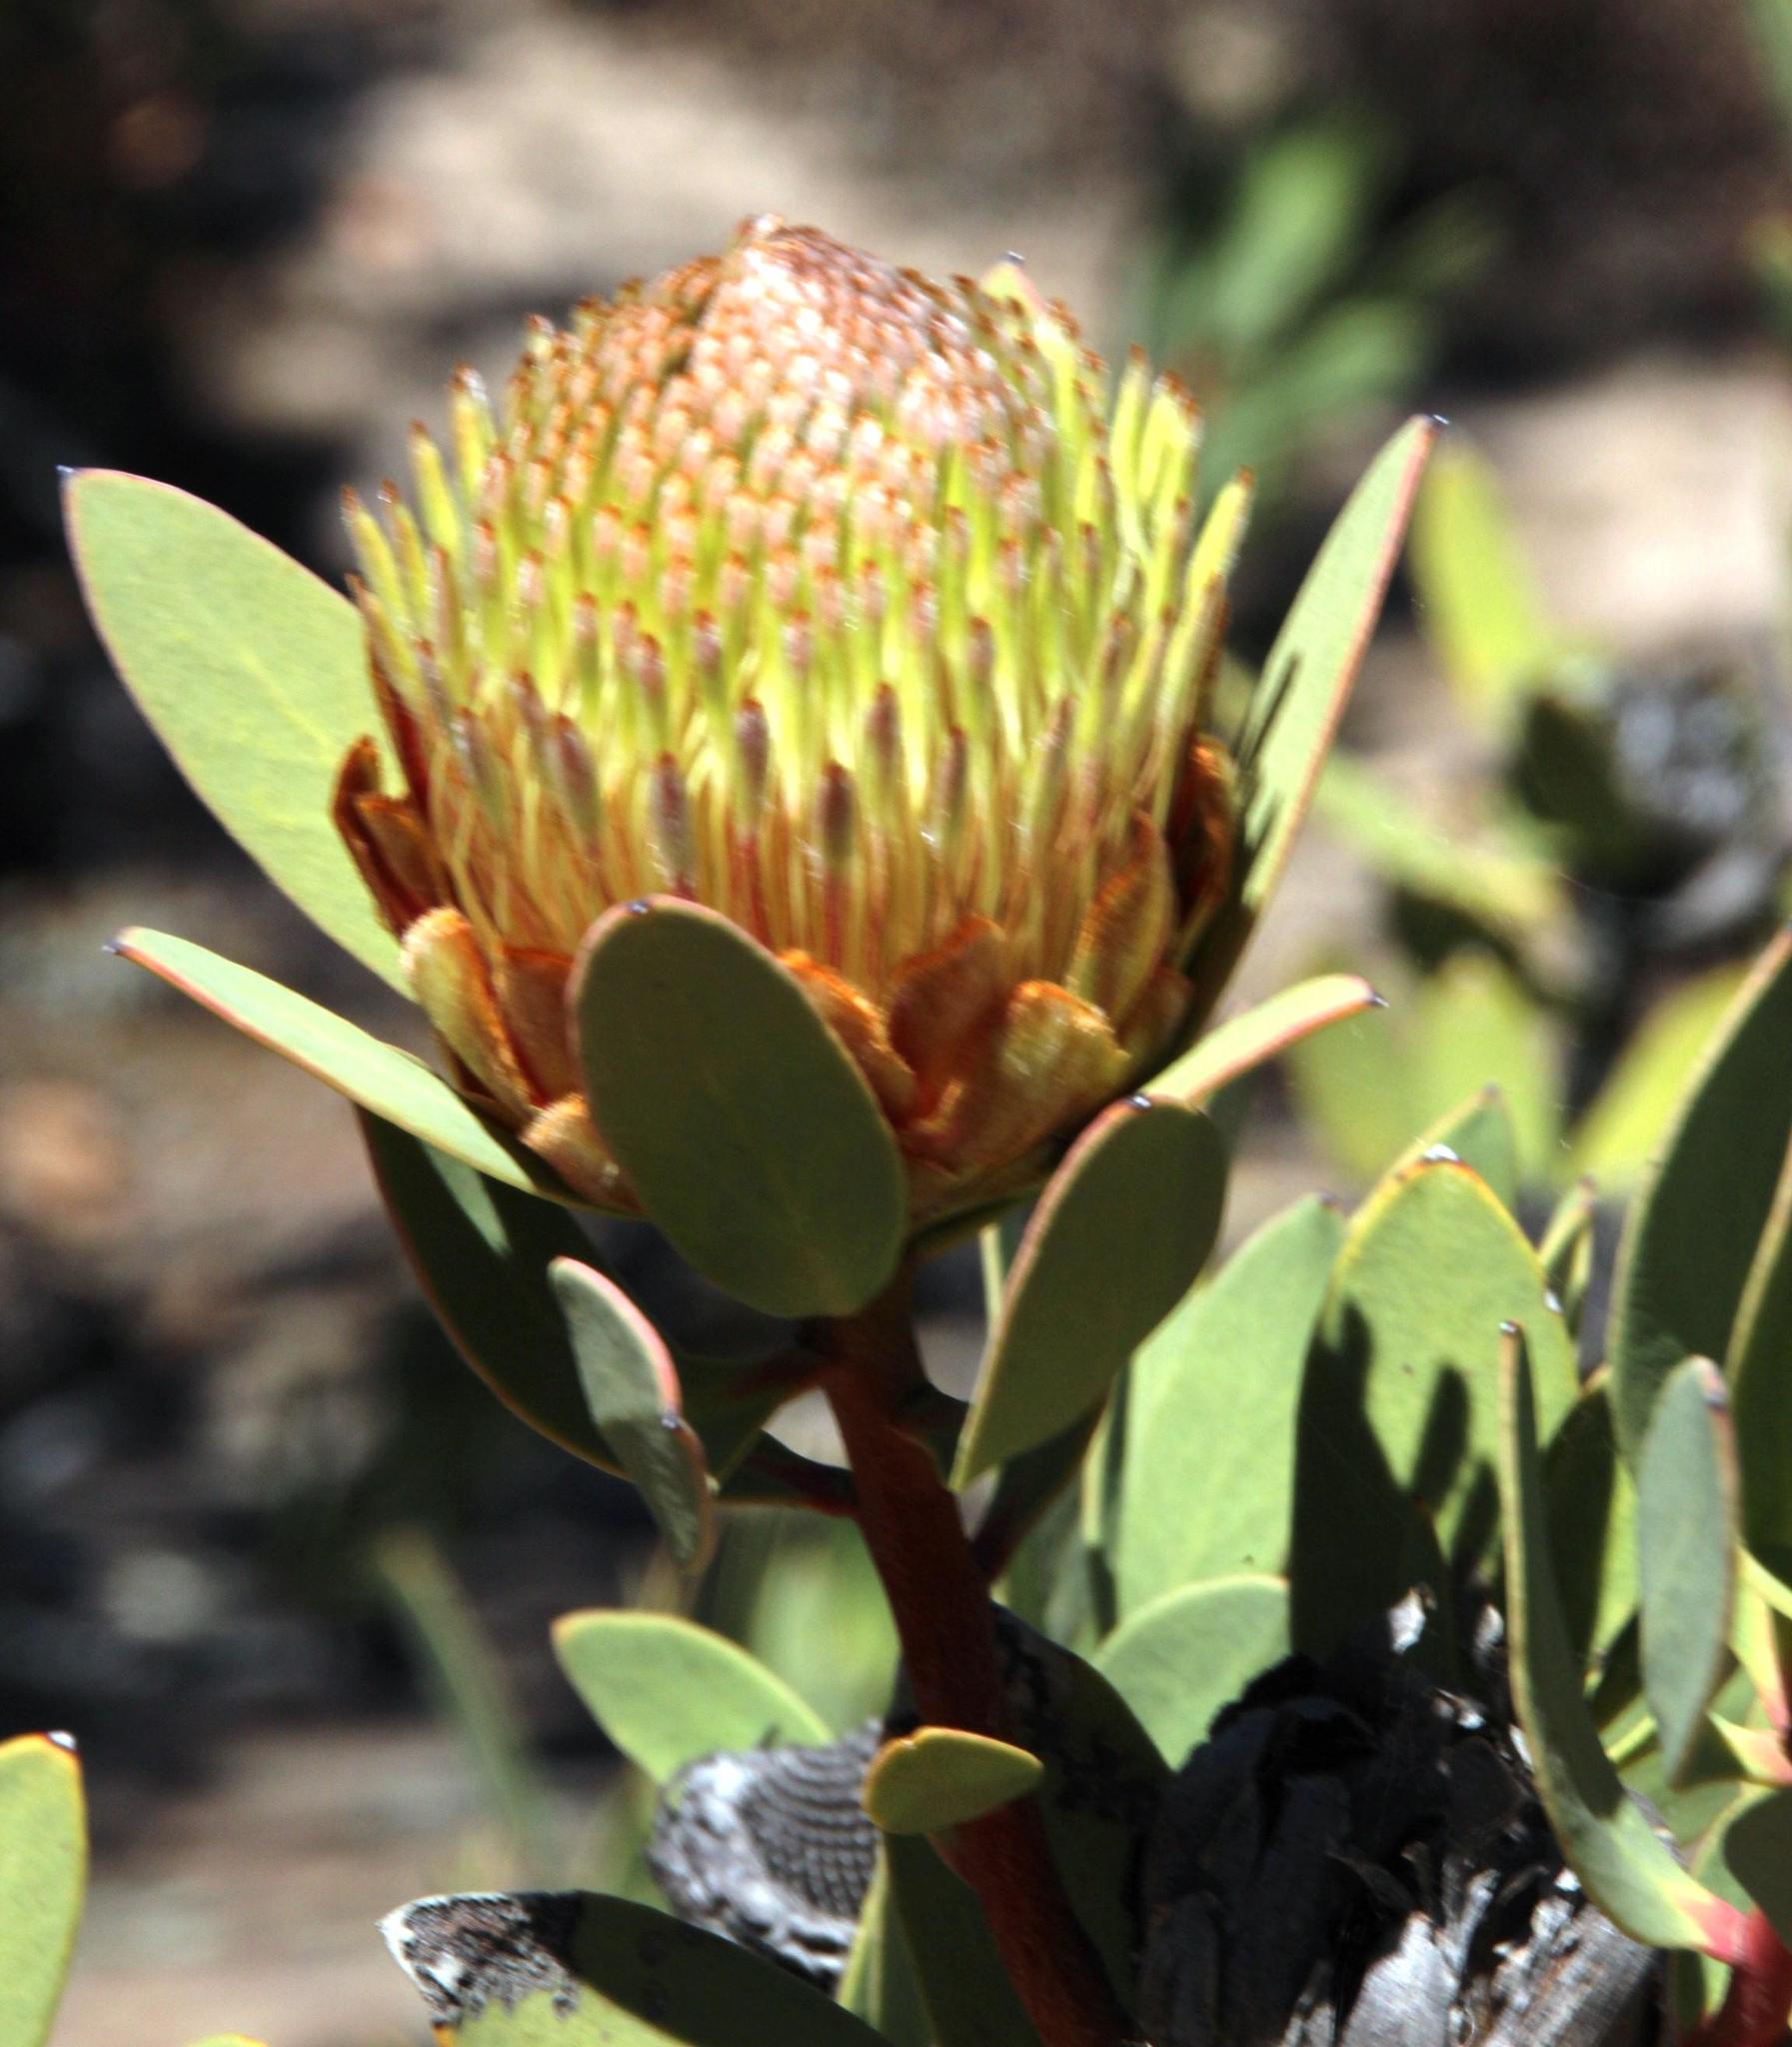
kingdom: Plantae
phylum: Tracheophyta
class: Magnoliopsida
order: Proteales
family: Proteaceae
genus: Protea
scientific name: Protea glabra
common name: Chestnut sugarbush
